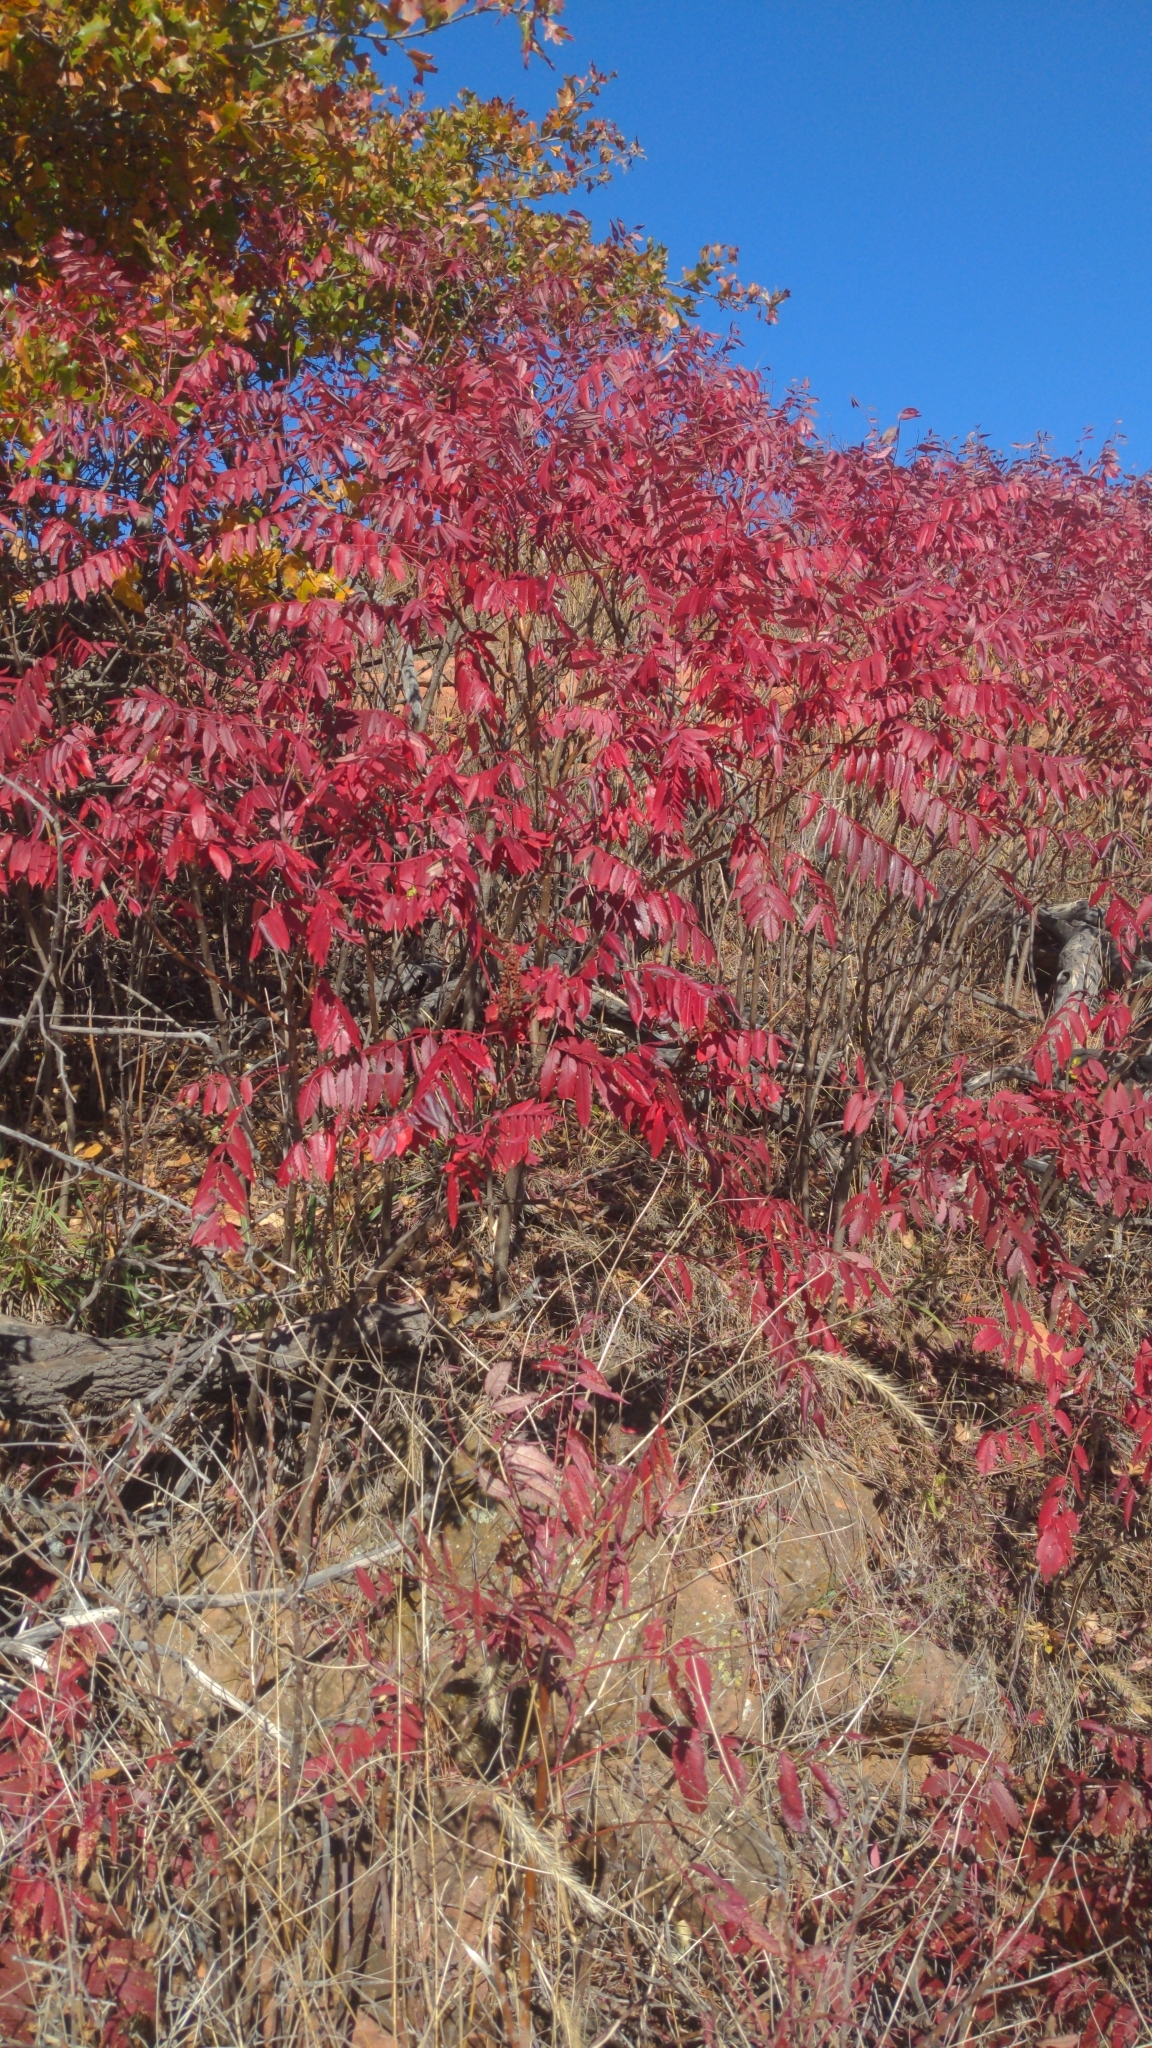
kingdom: Plantae
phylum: Tracheophyta
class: Magnoliopsida
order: Sapindales
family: Anacardiaceae
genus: Rhus
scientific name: Rhus glabra
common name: Scarlet sumac
